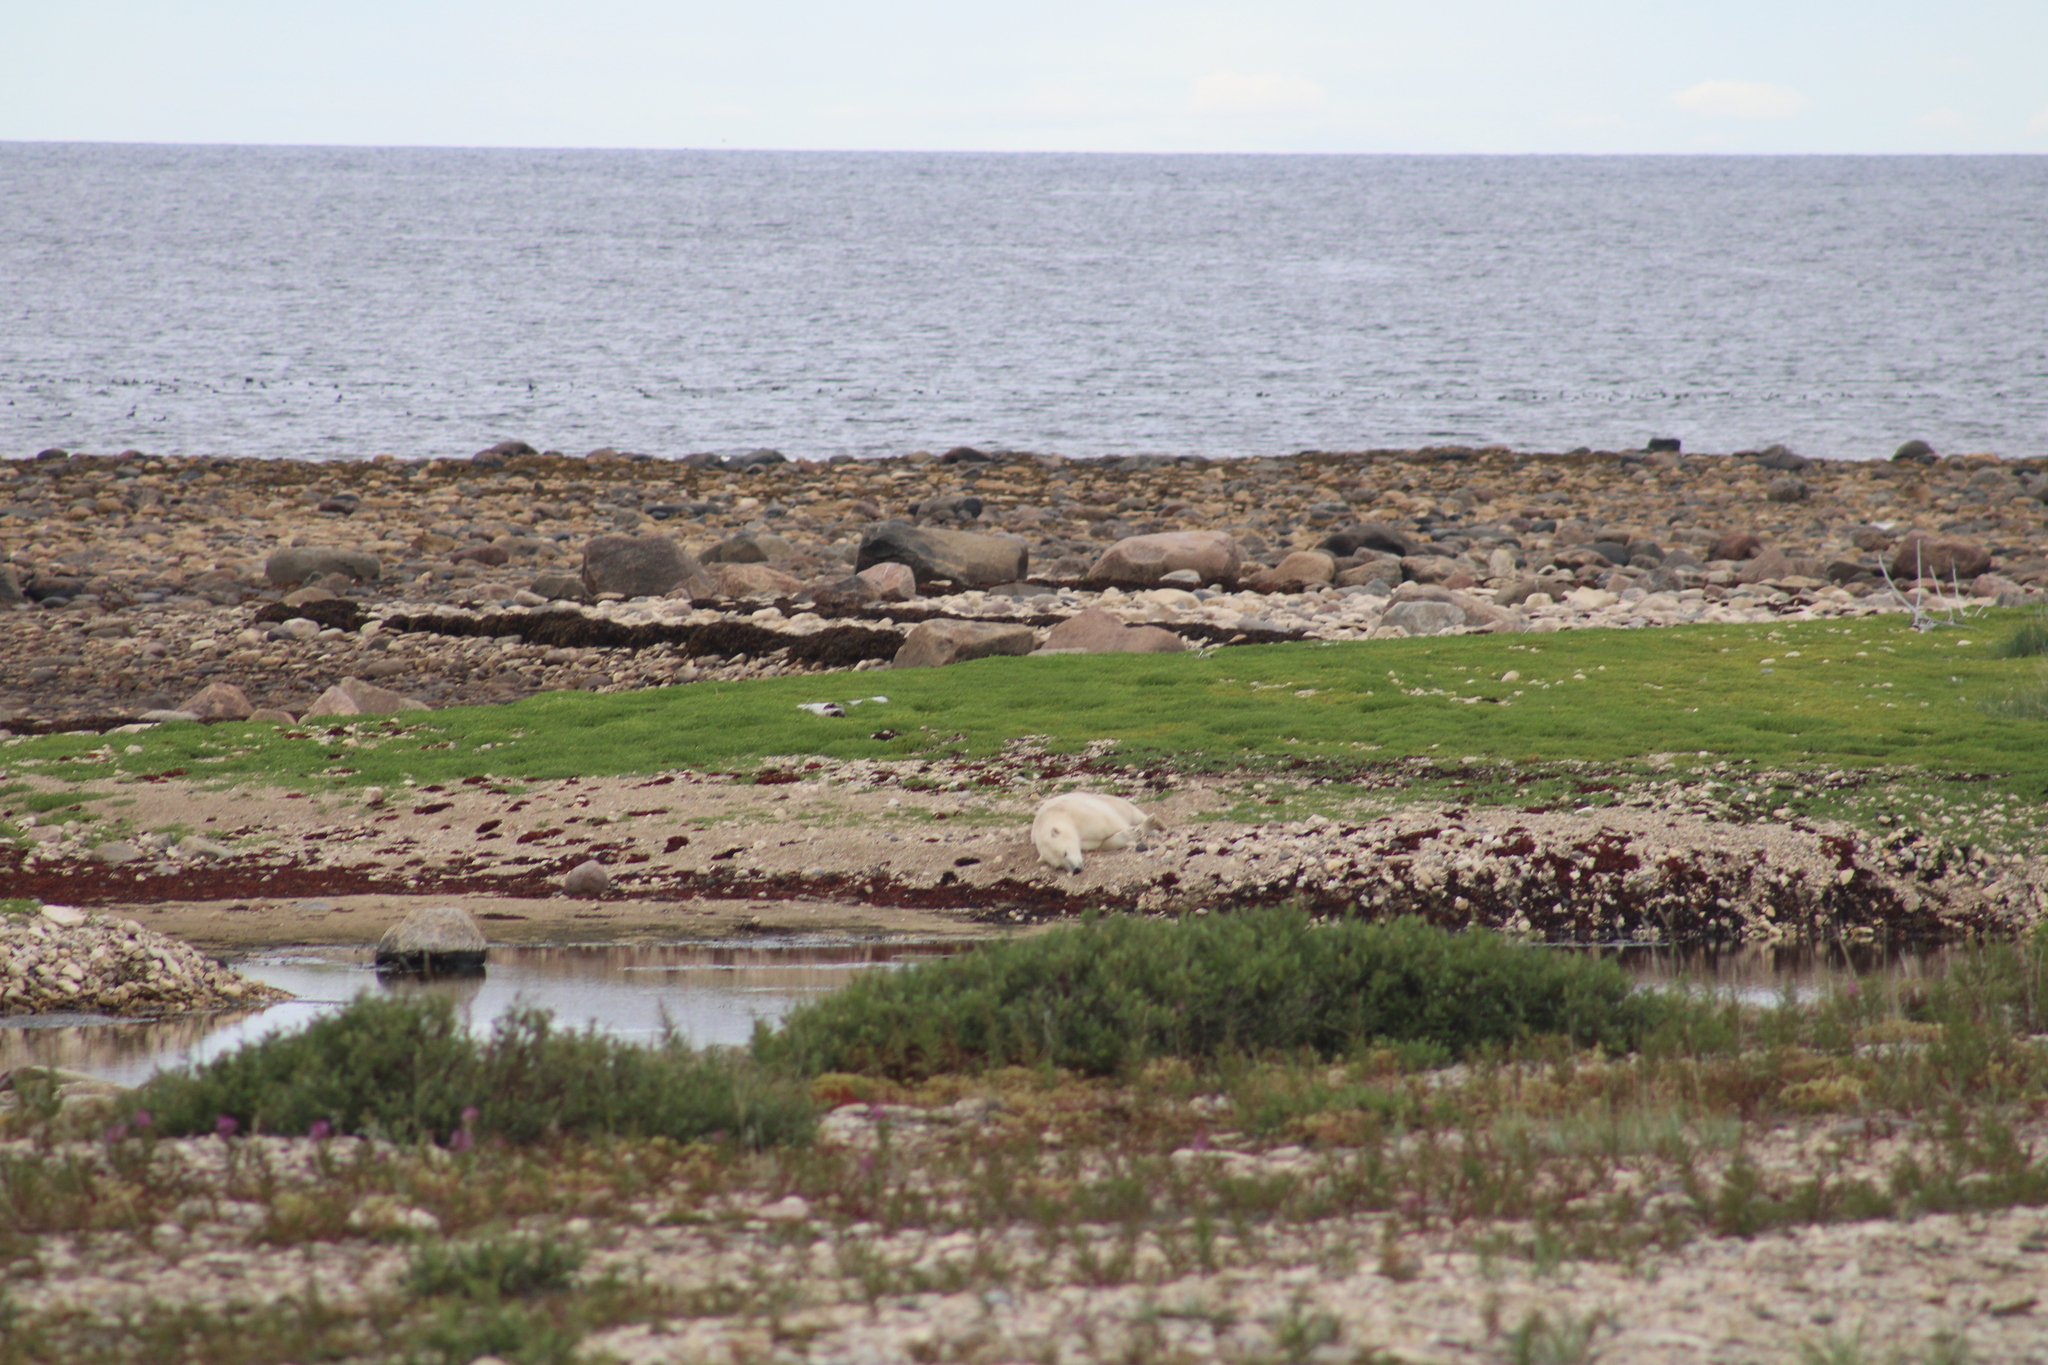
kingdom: Animalia
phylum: Chordata
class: Mammalia
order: Carnivora
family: Ursidae
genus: Ursus
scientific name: Ursus maritimus
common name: Polar bear
